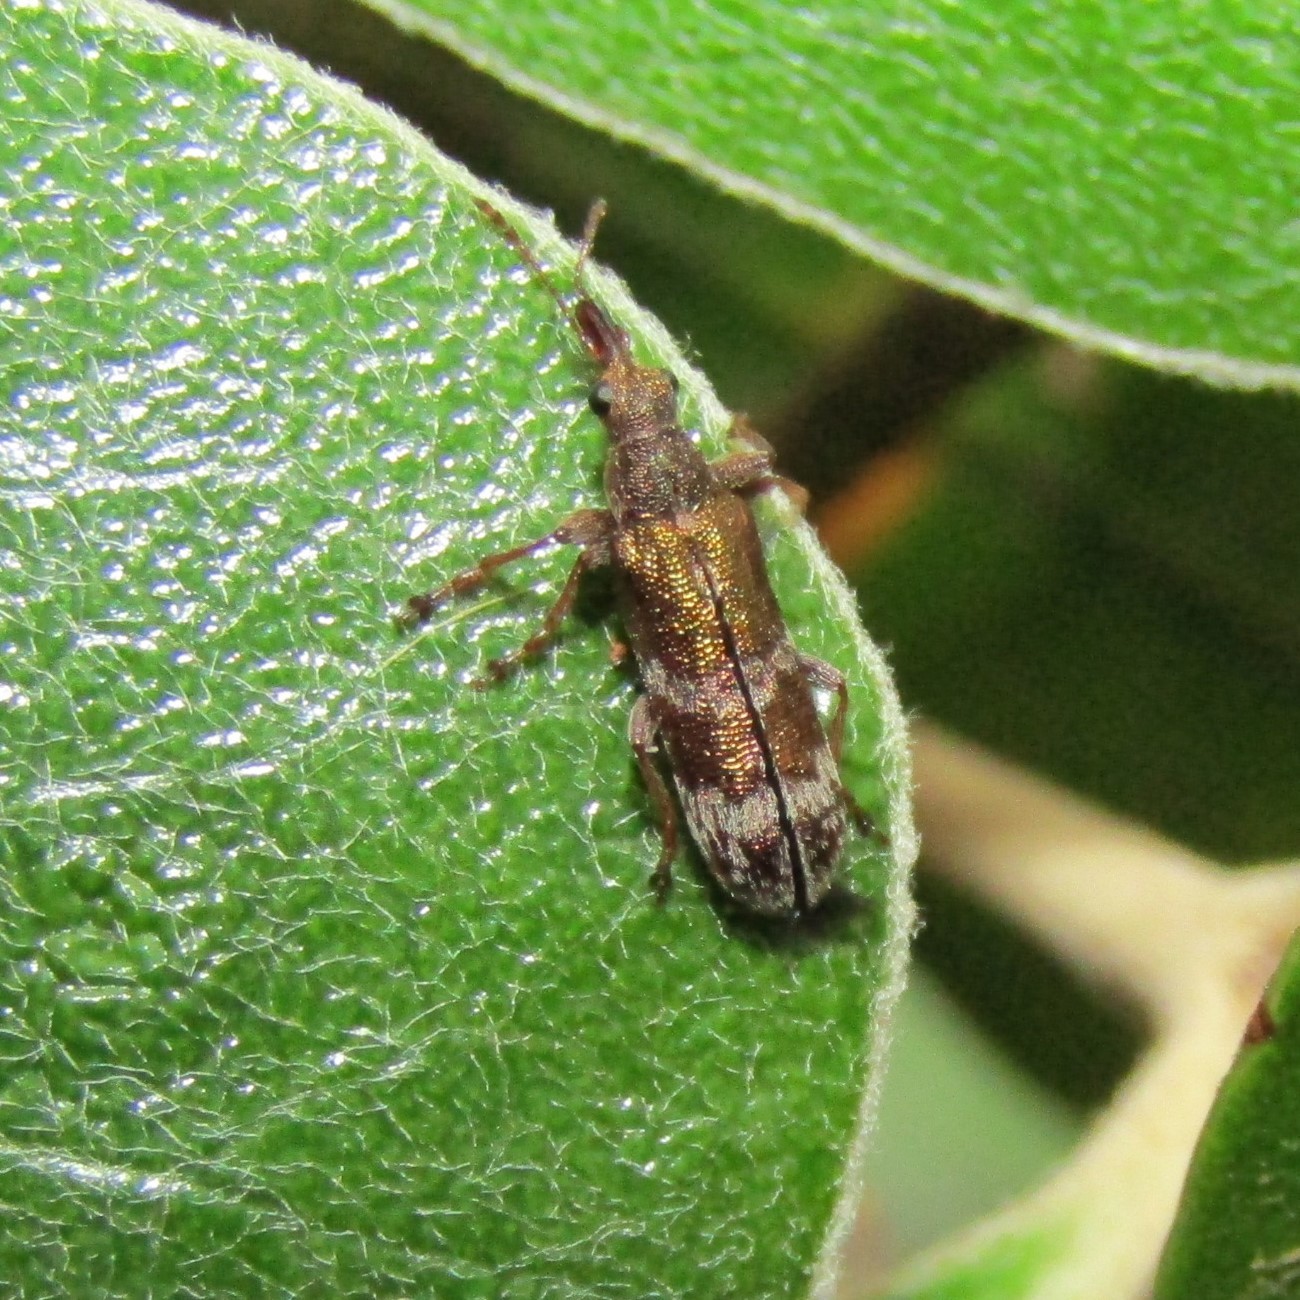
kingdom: Animalia
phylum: Arthropoda
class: Insecta
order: Coleoptera
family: Belidae
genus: Rhicnobelus
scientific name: Rhicnobelus
